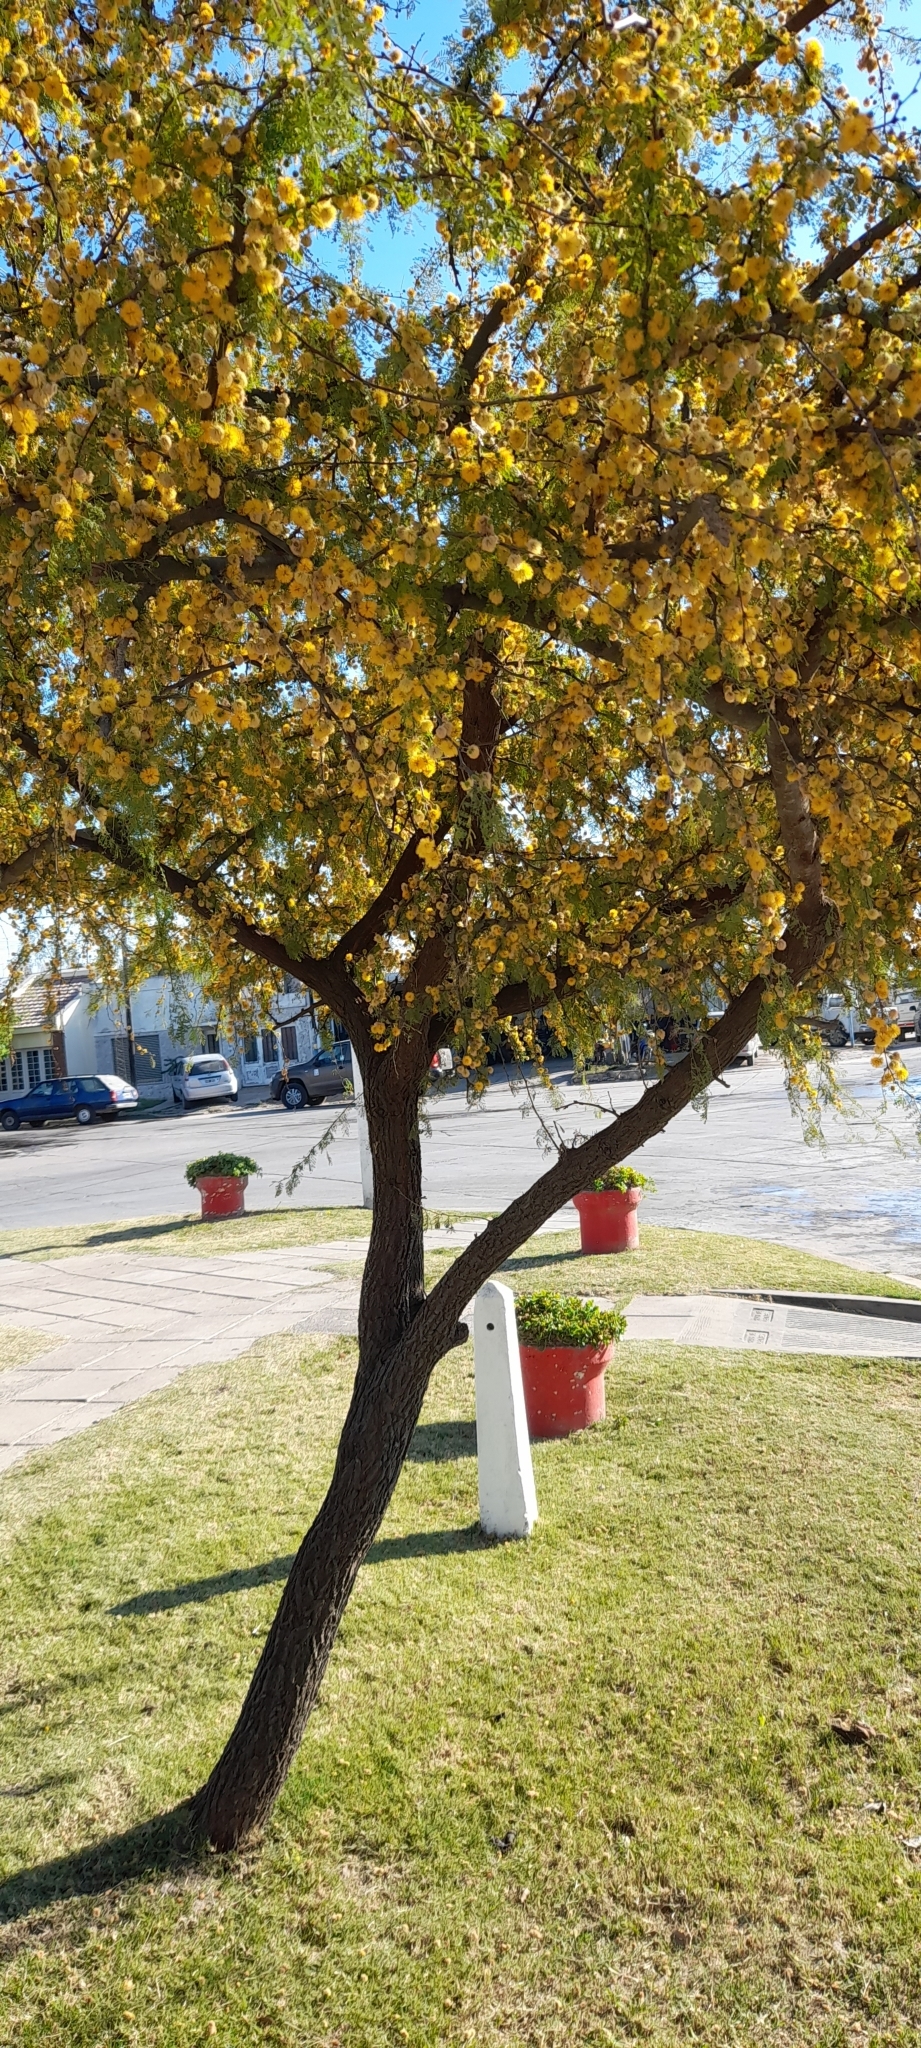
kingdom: Plantae
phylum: Tracheophyta
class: Magnoliopsida
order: Fabales
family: Fabaceae
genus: Vachellia
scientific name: Vachellia caven
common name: Roman cassie
